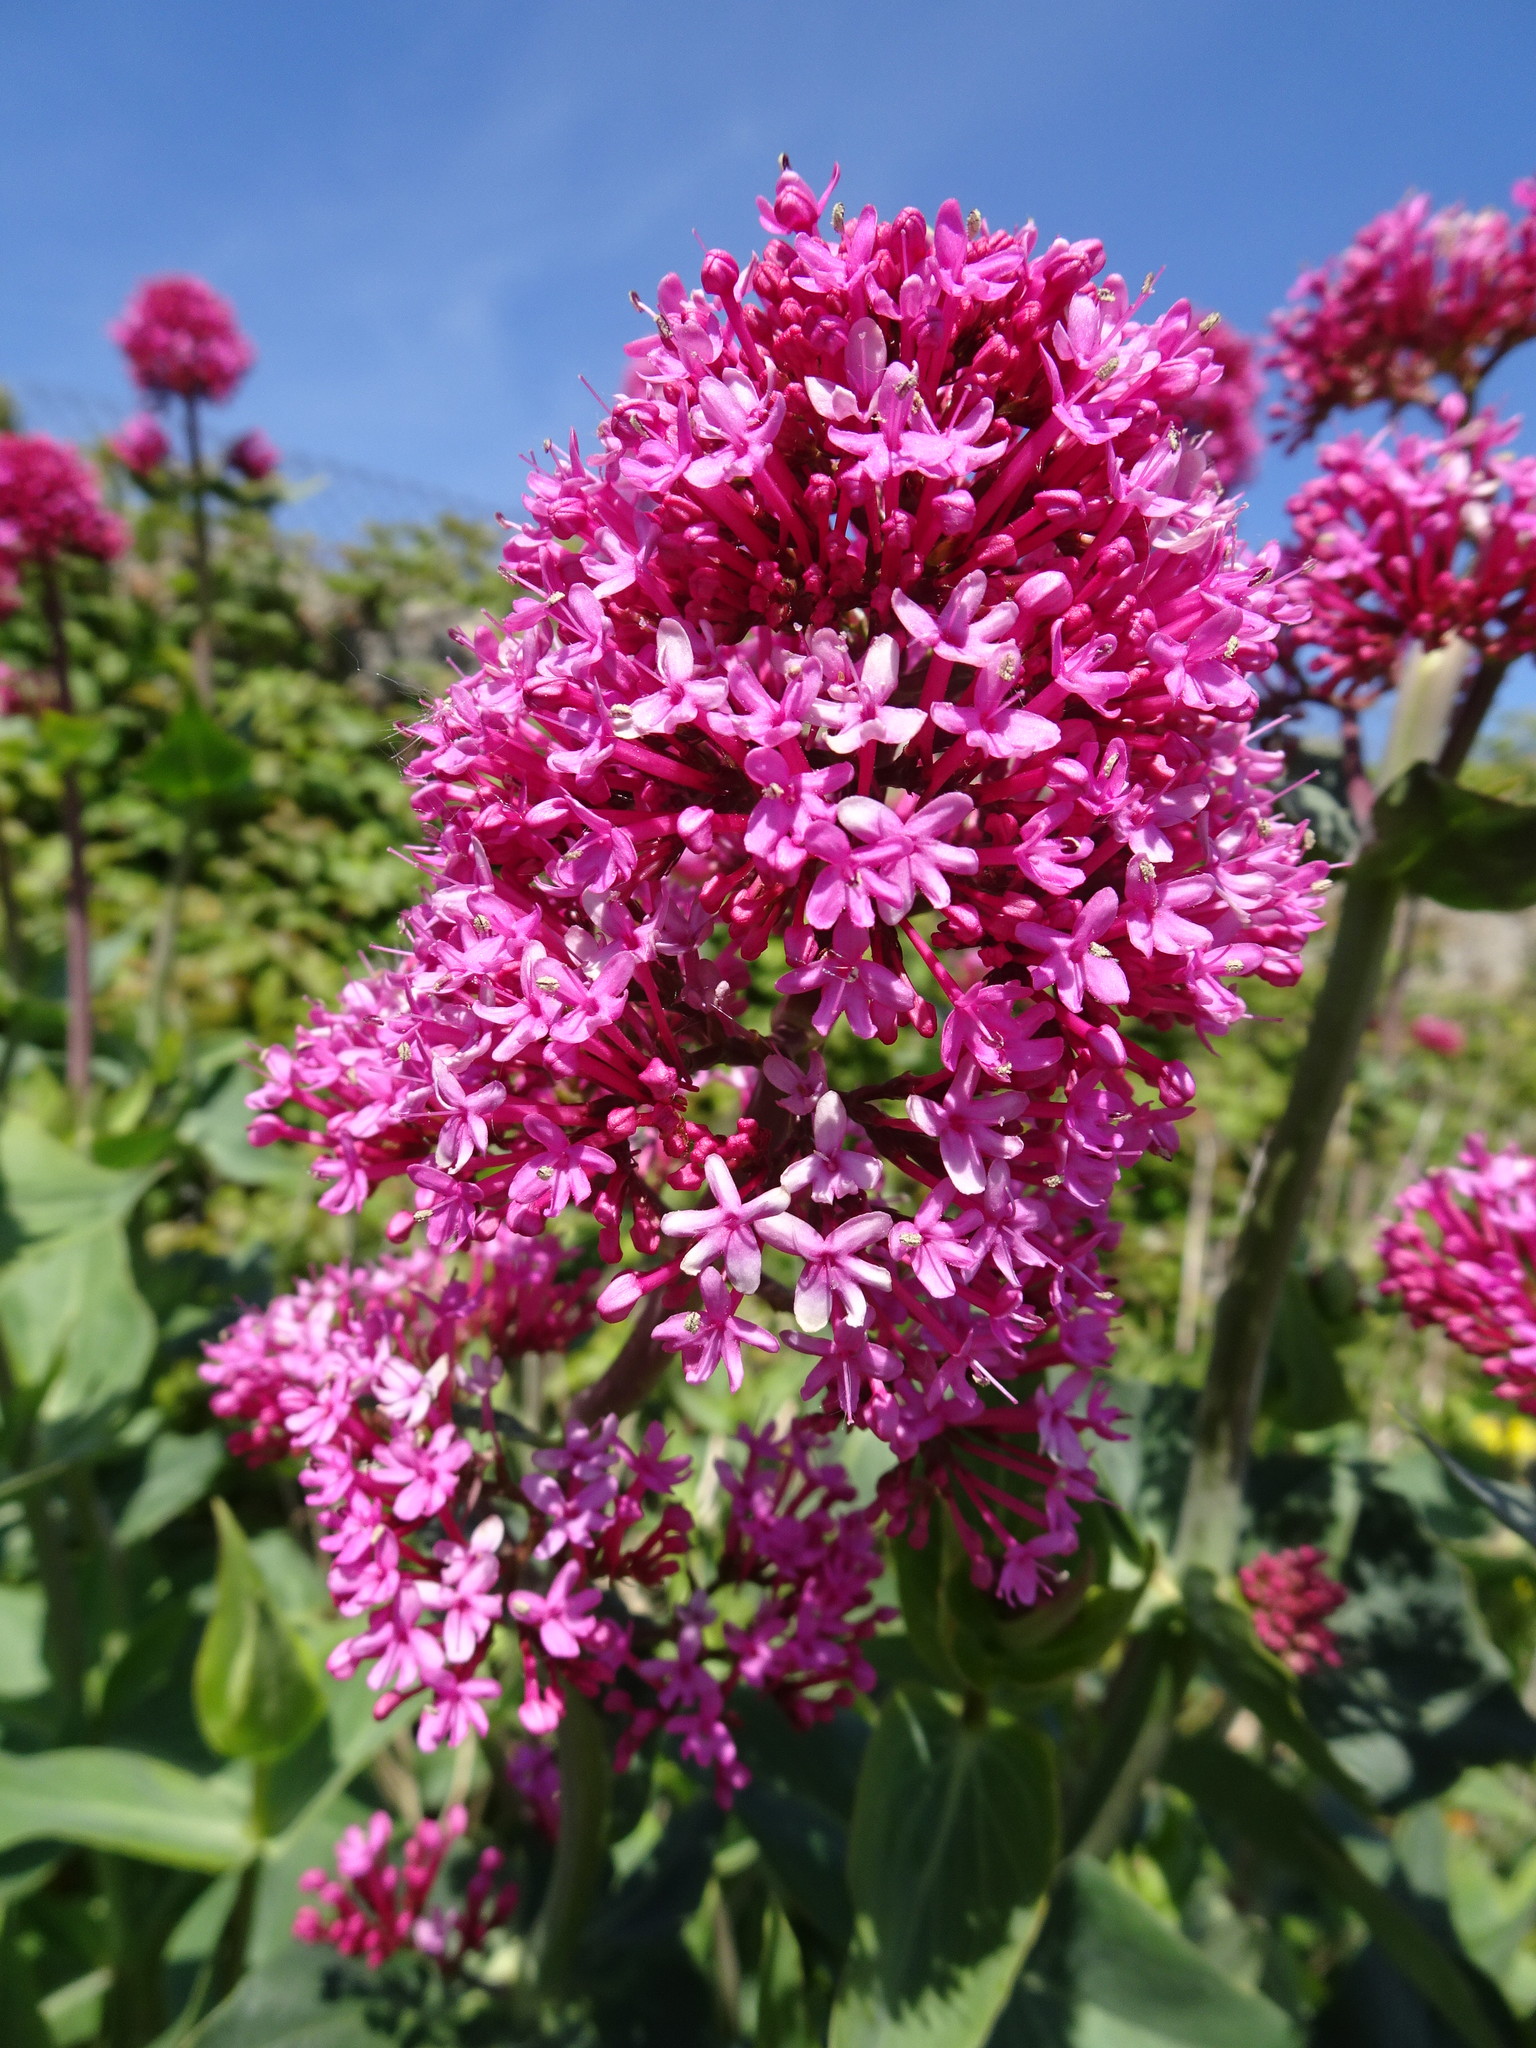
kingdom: Plantae
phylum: Tracheophyta
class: Magnoliopsida
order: Dipsacales
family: Caprifoliaceae
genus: Centranthus
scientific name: Centranthus ruber
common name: Red valerian
